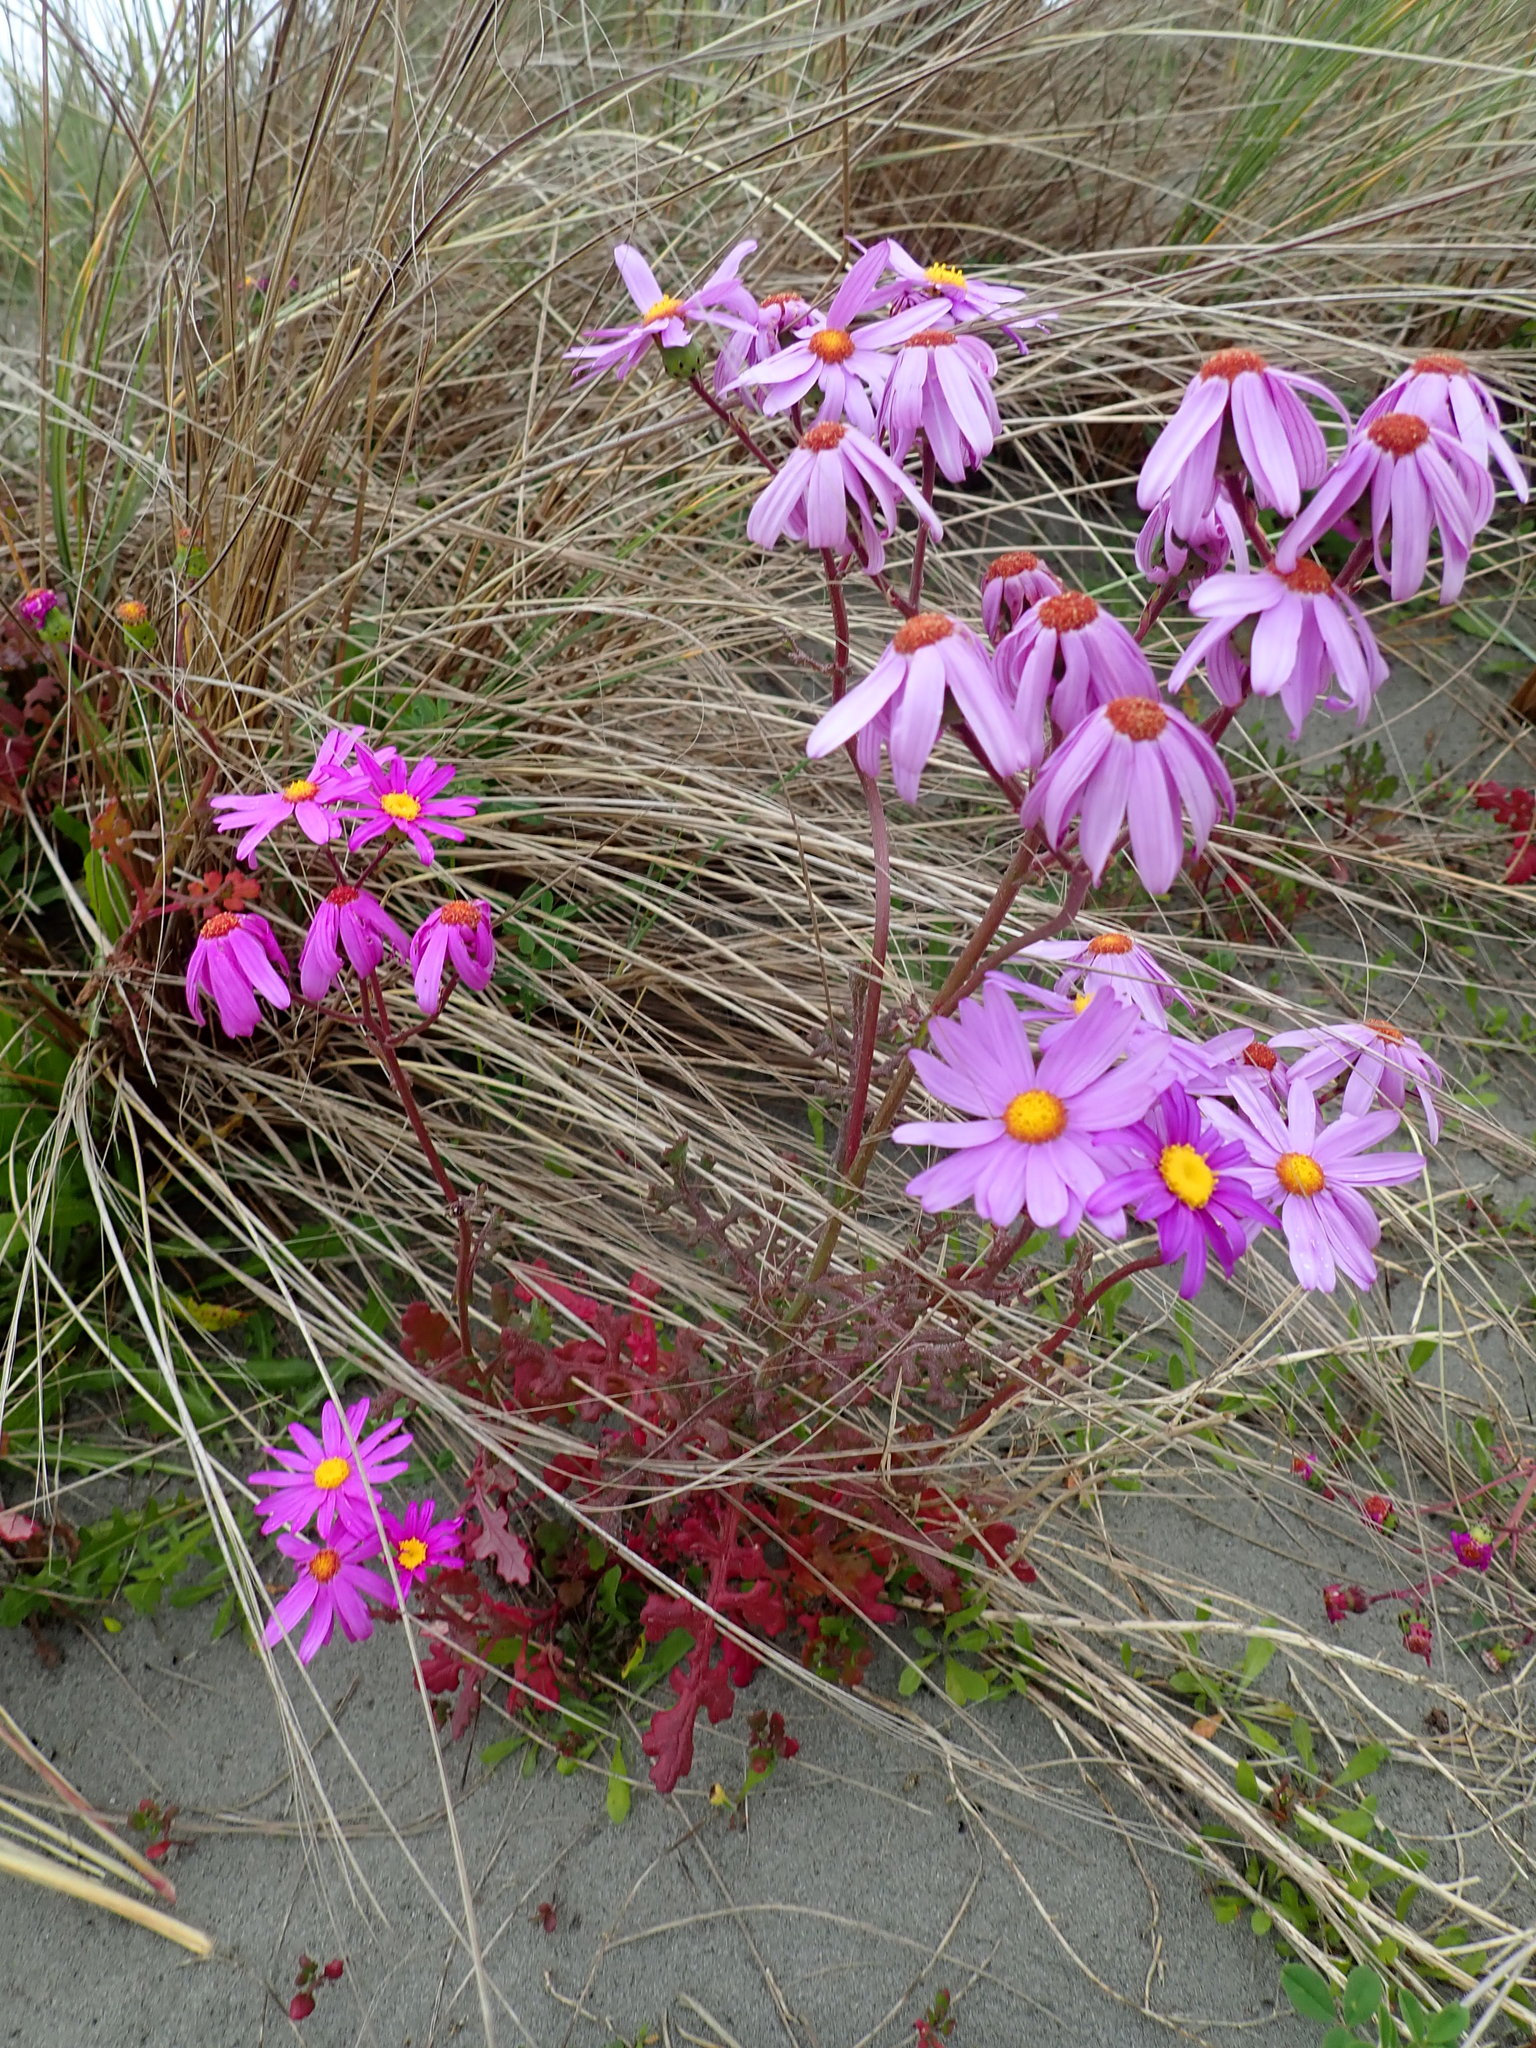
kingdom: Plantae
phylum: Tracheophyta
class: Magnoliopsida
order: Asterales
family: Asteraceae
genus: Senecio
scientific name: Senecio elegans
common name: Purple groundsel
